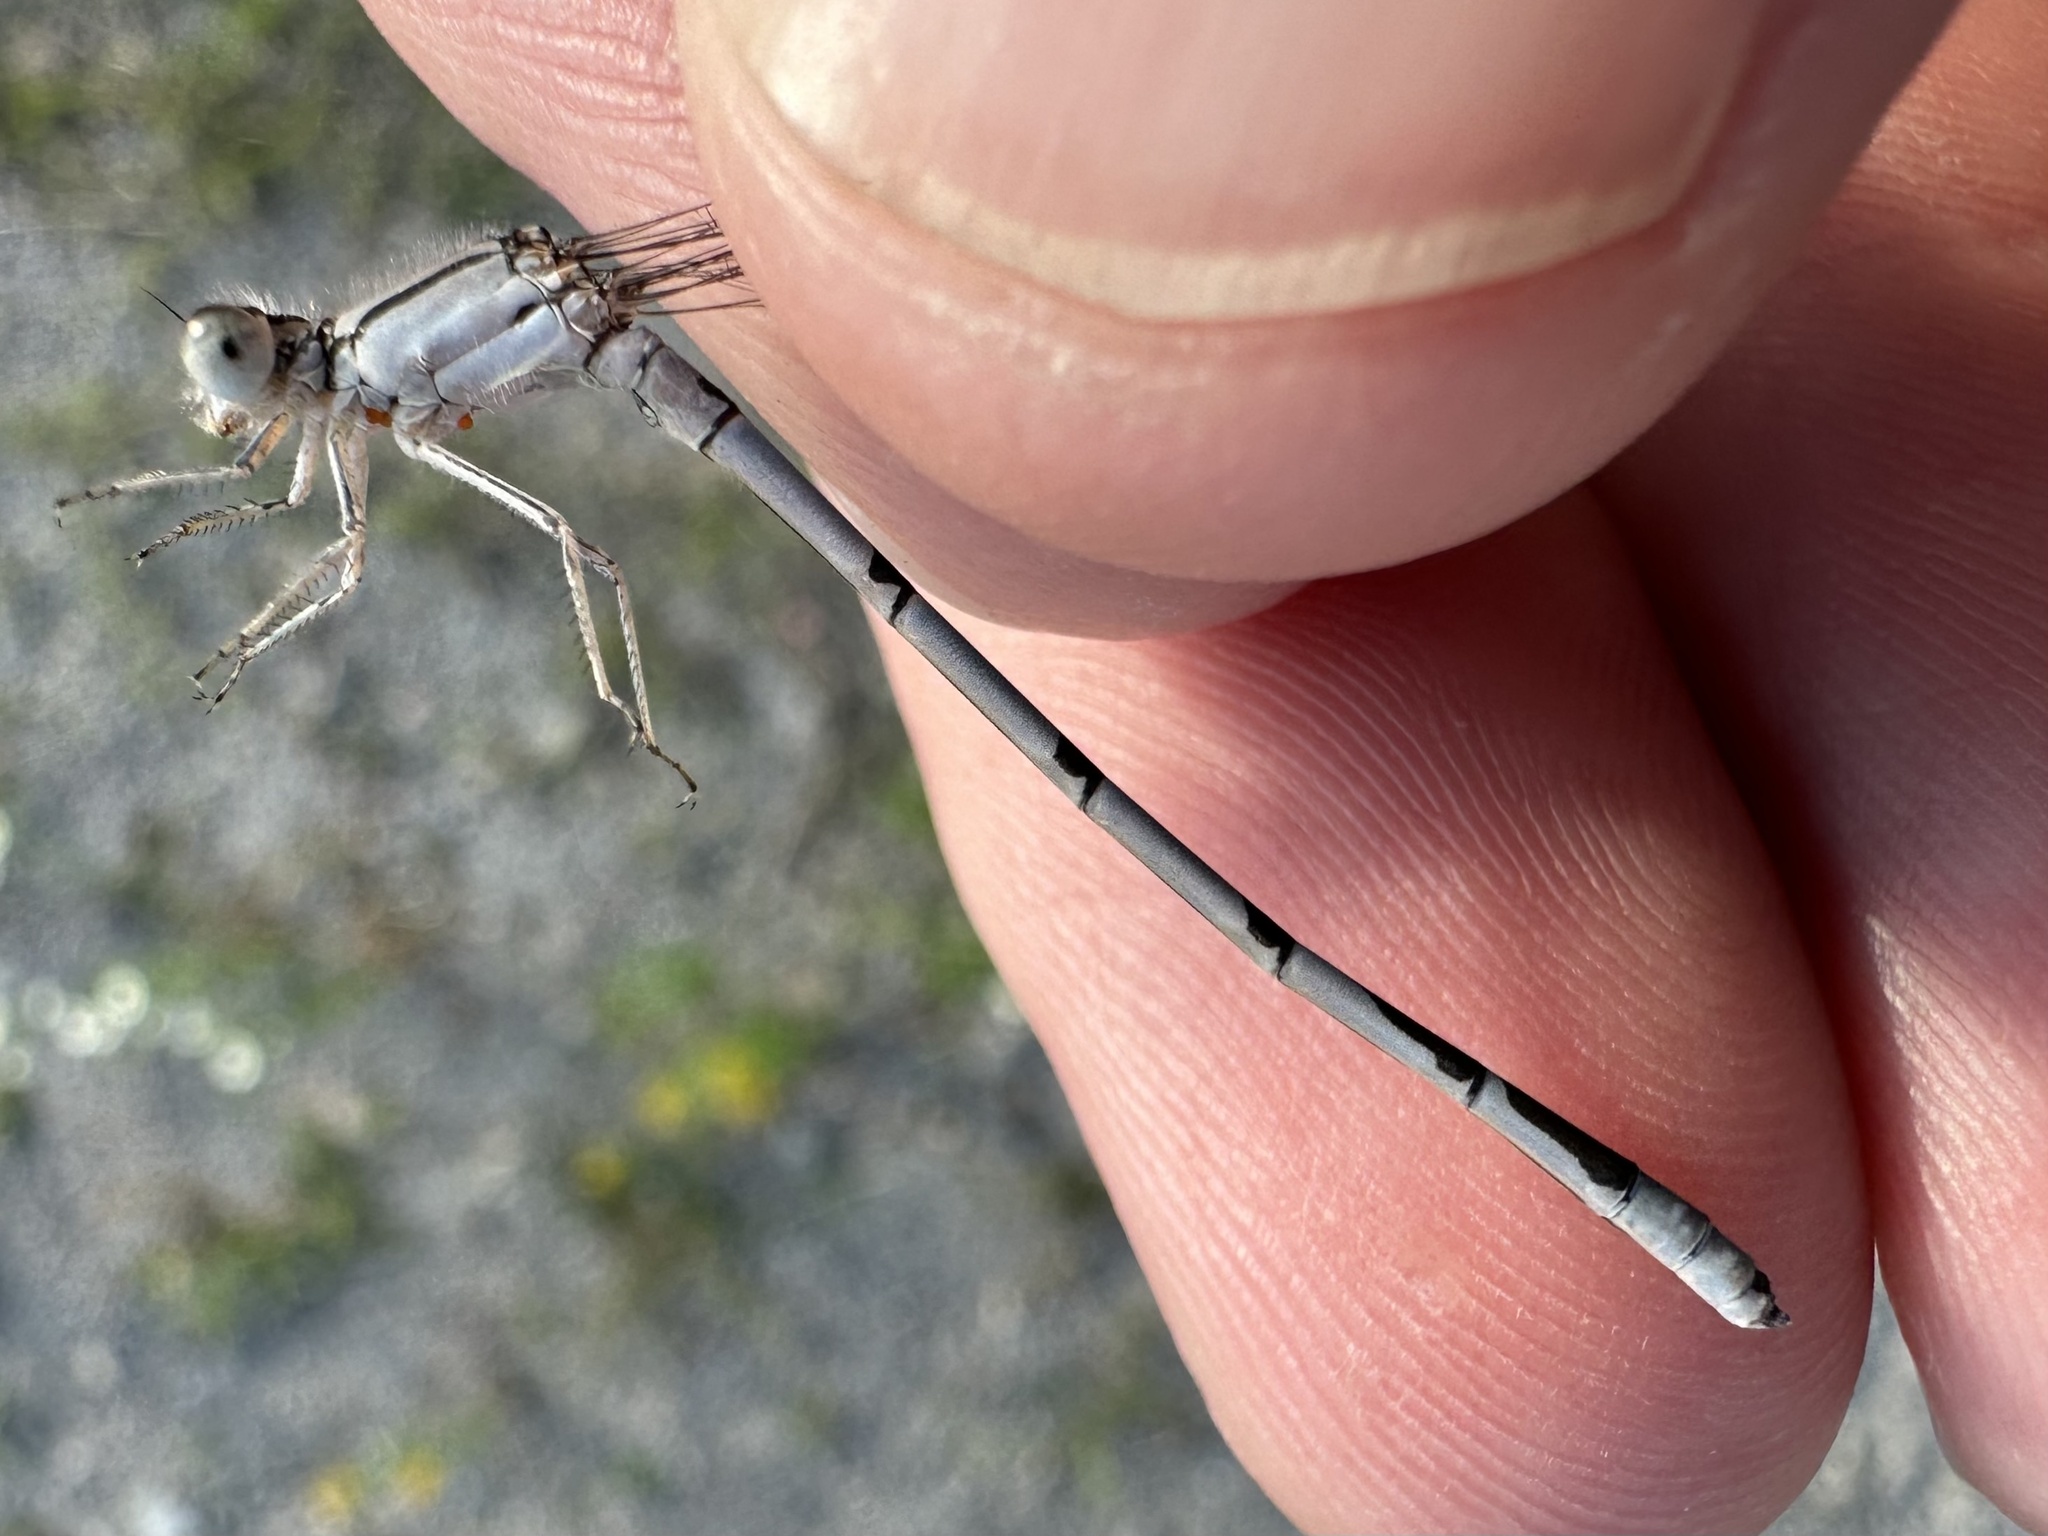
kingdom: Animalia
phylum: Arthropoda
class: Insecta
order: Odonata
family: Coenagrionidae
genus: Enallagma
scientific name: Enallagma civile
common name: Damselfly
